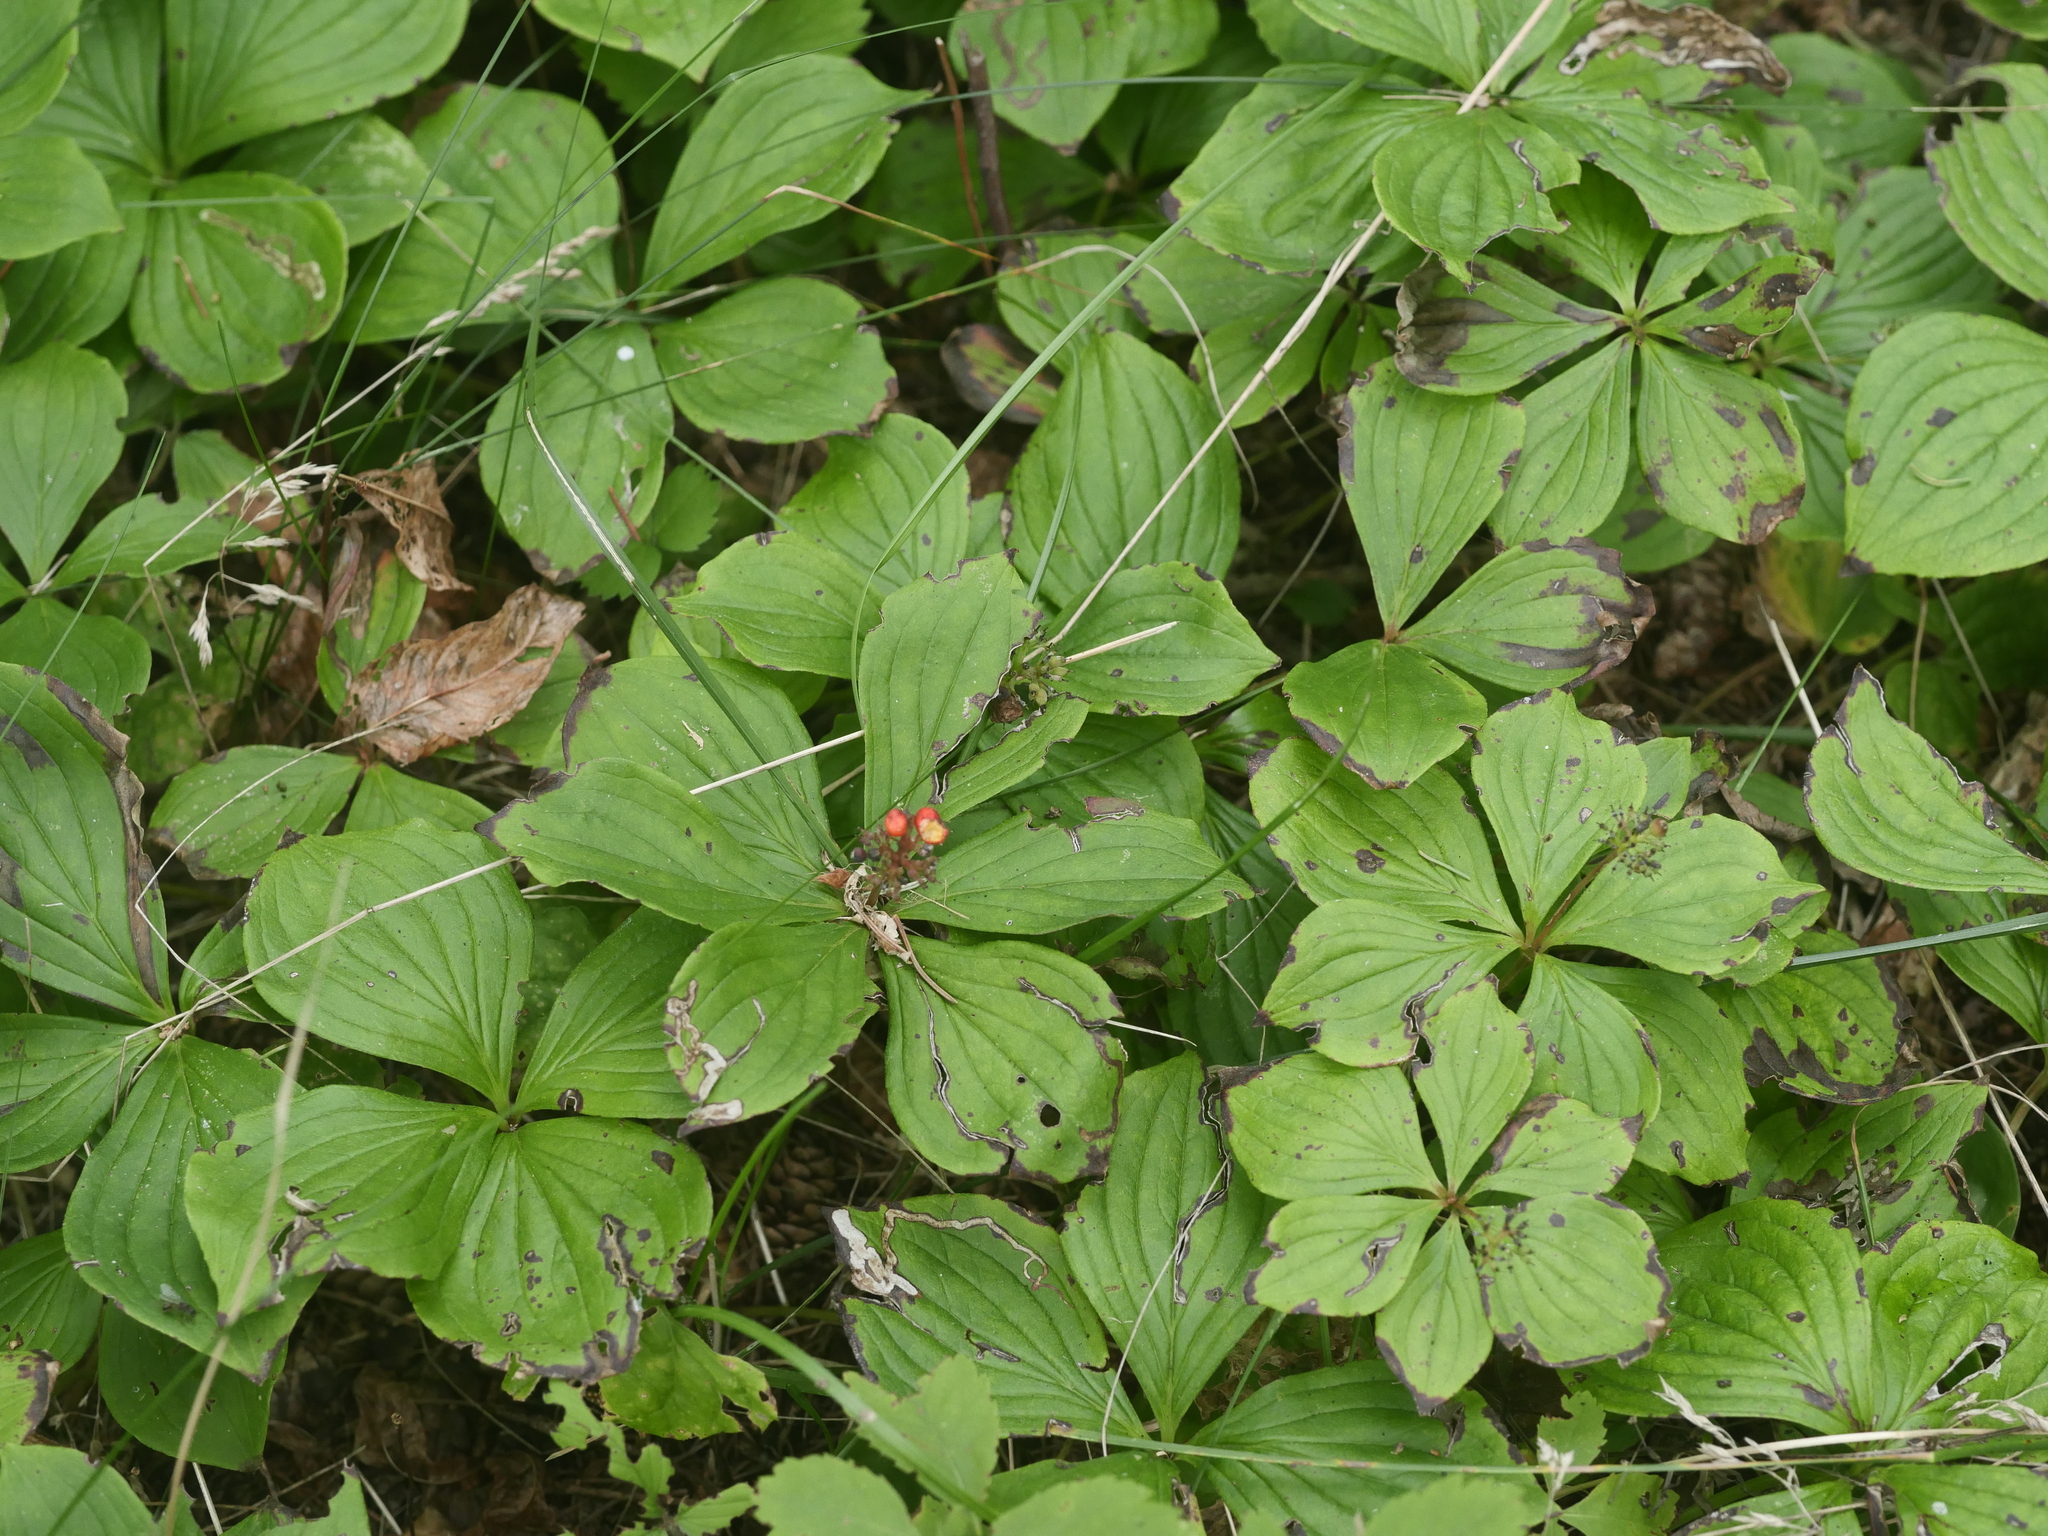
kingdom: Plantae
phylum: Tracheophyta
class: Magnoliopsida
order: Cornales
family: Cornaceae
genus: Cornus
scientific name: Cornus canadensis
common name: Creeping dogwood
